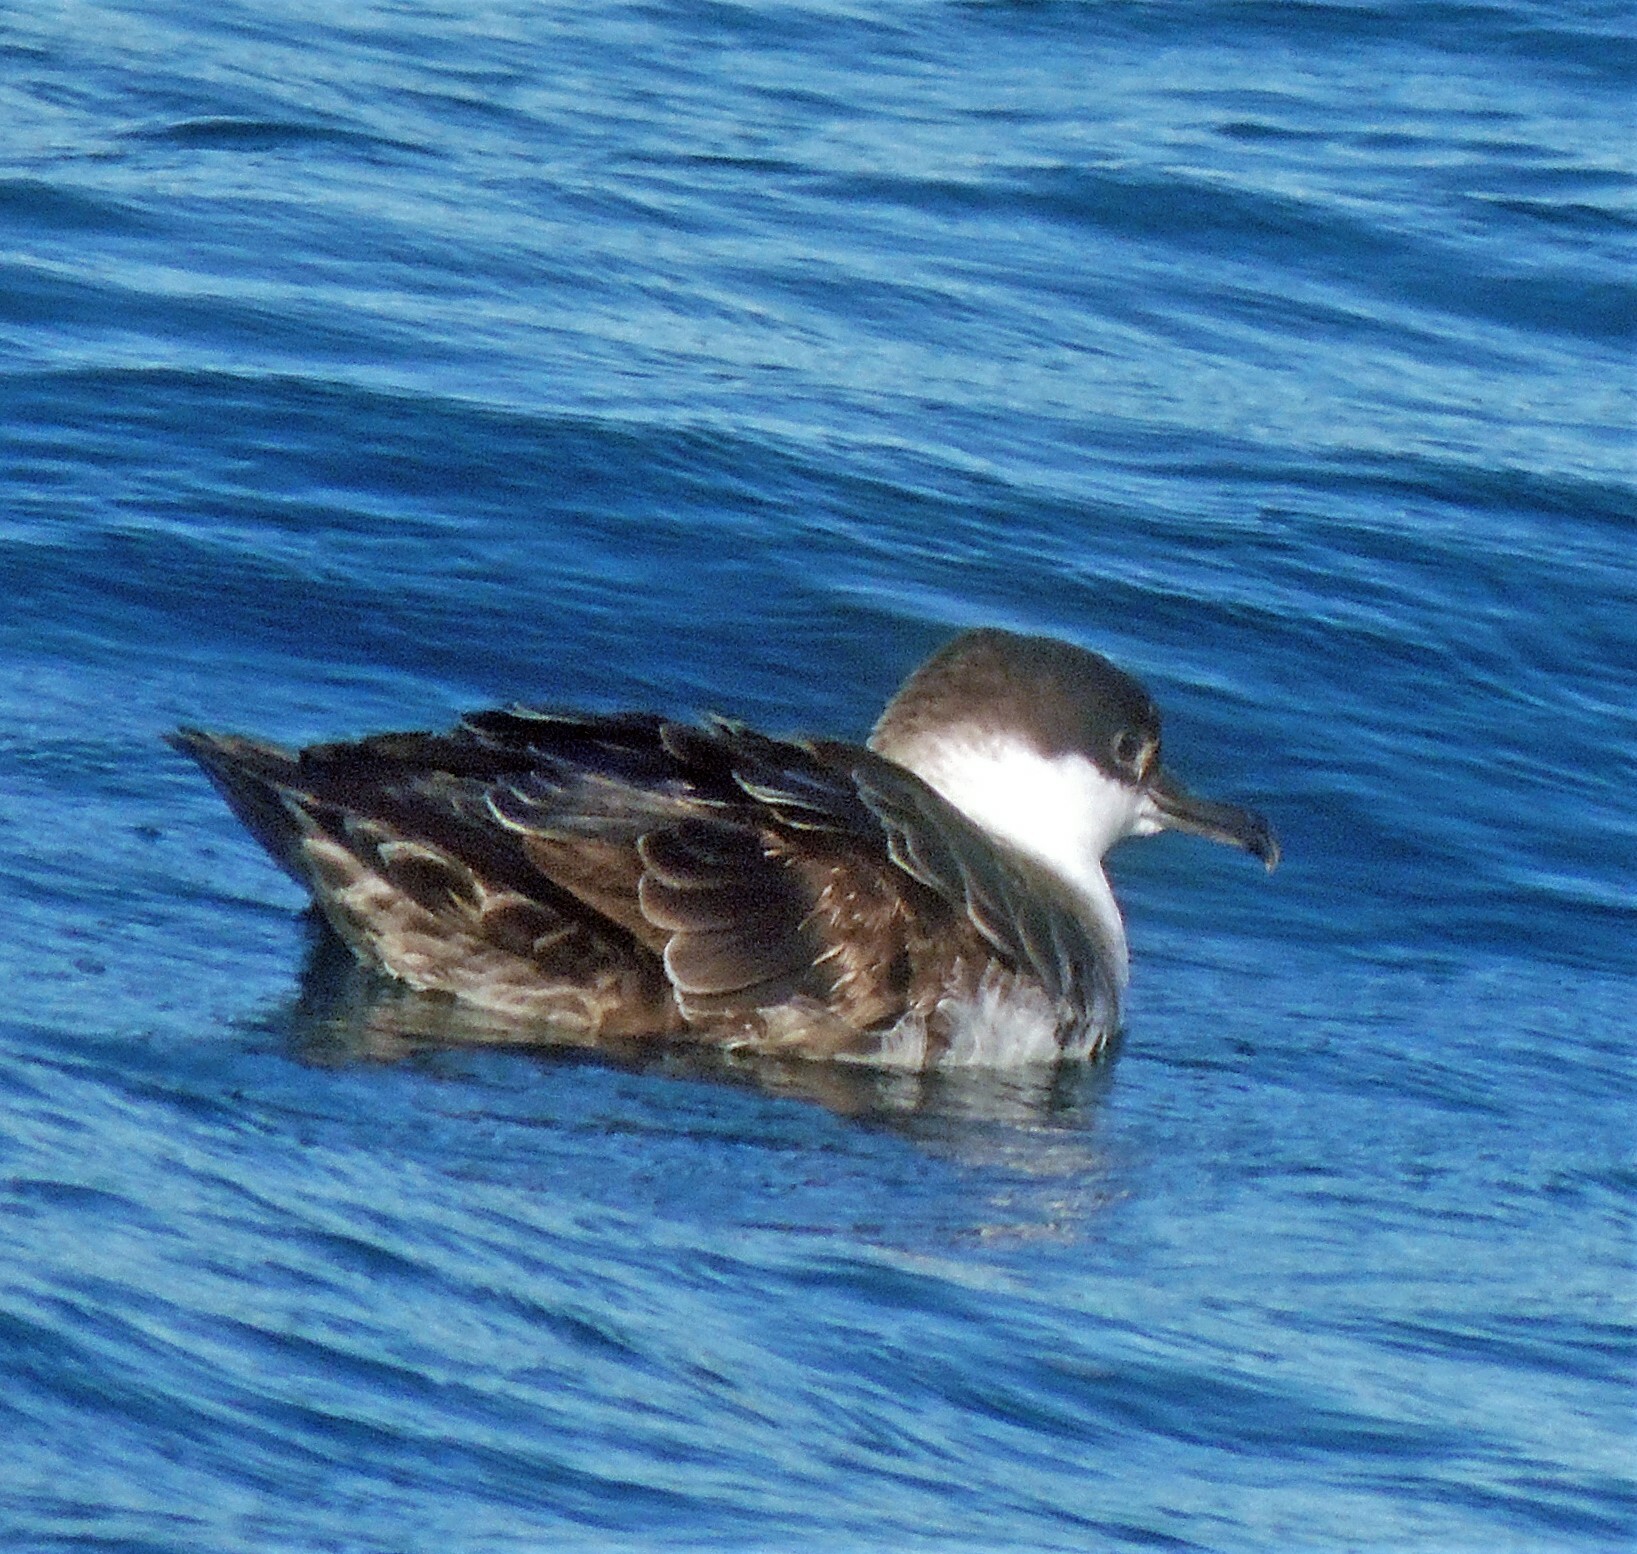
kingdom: Animalia
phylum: Chordata
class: Aves
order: Procellariiformes
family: Procellariidae
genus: Puffinus
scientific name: Puffinus gravis
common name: Great shearwater
